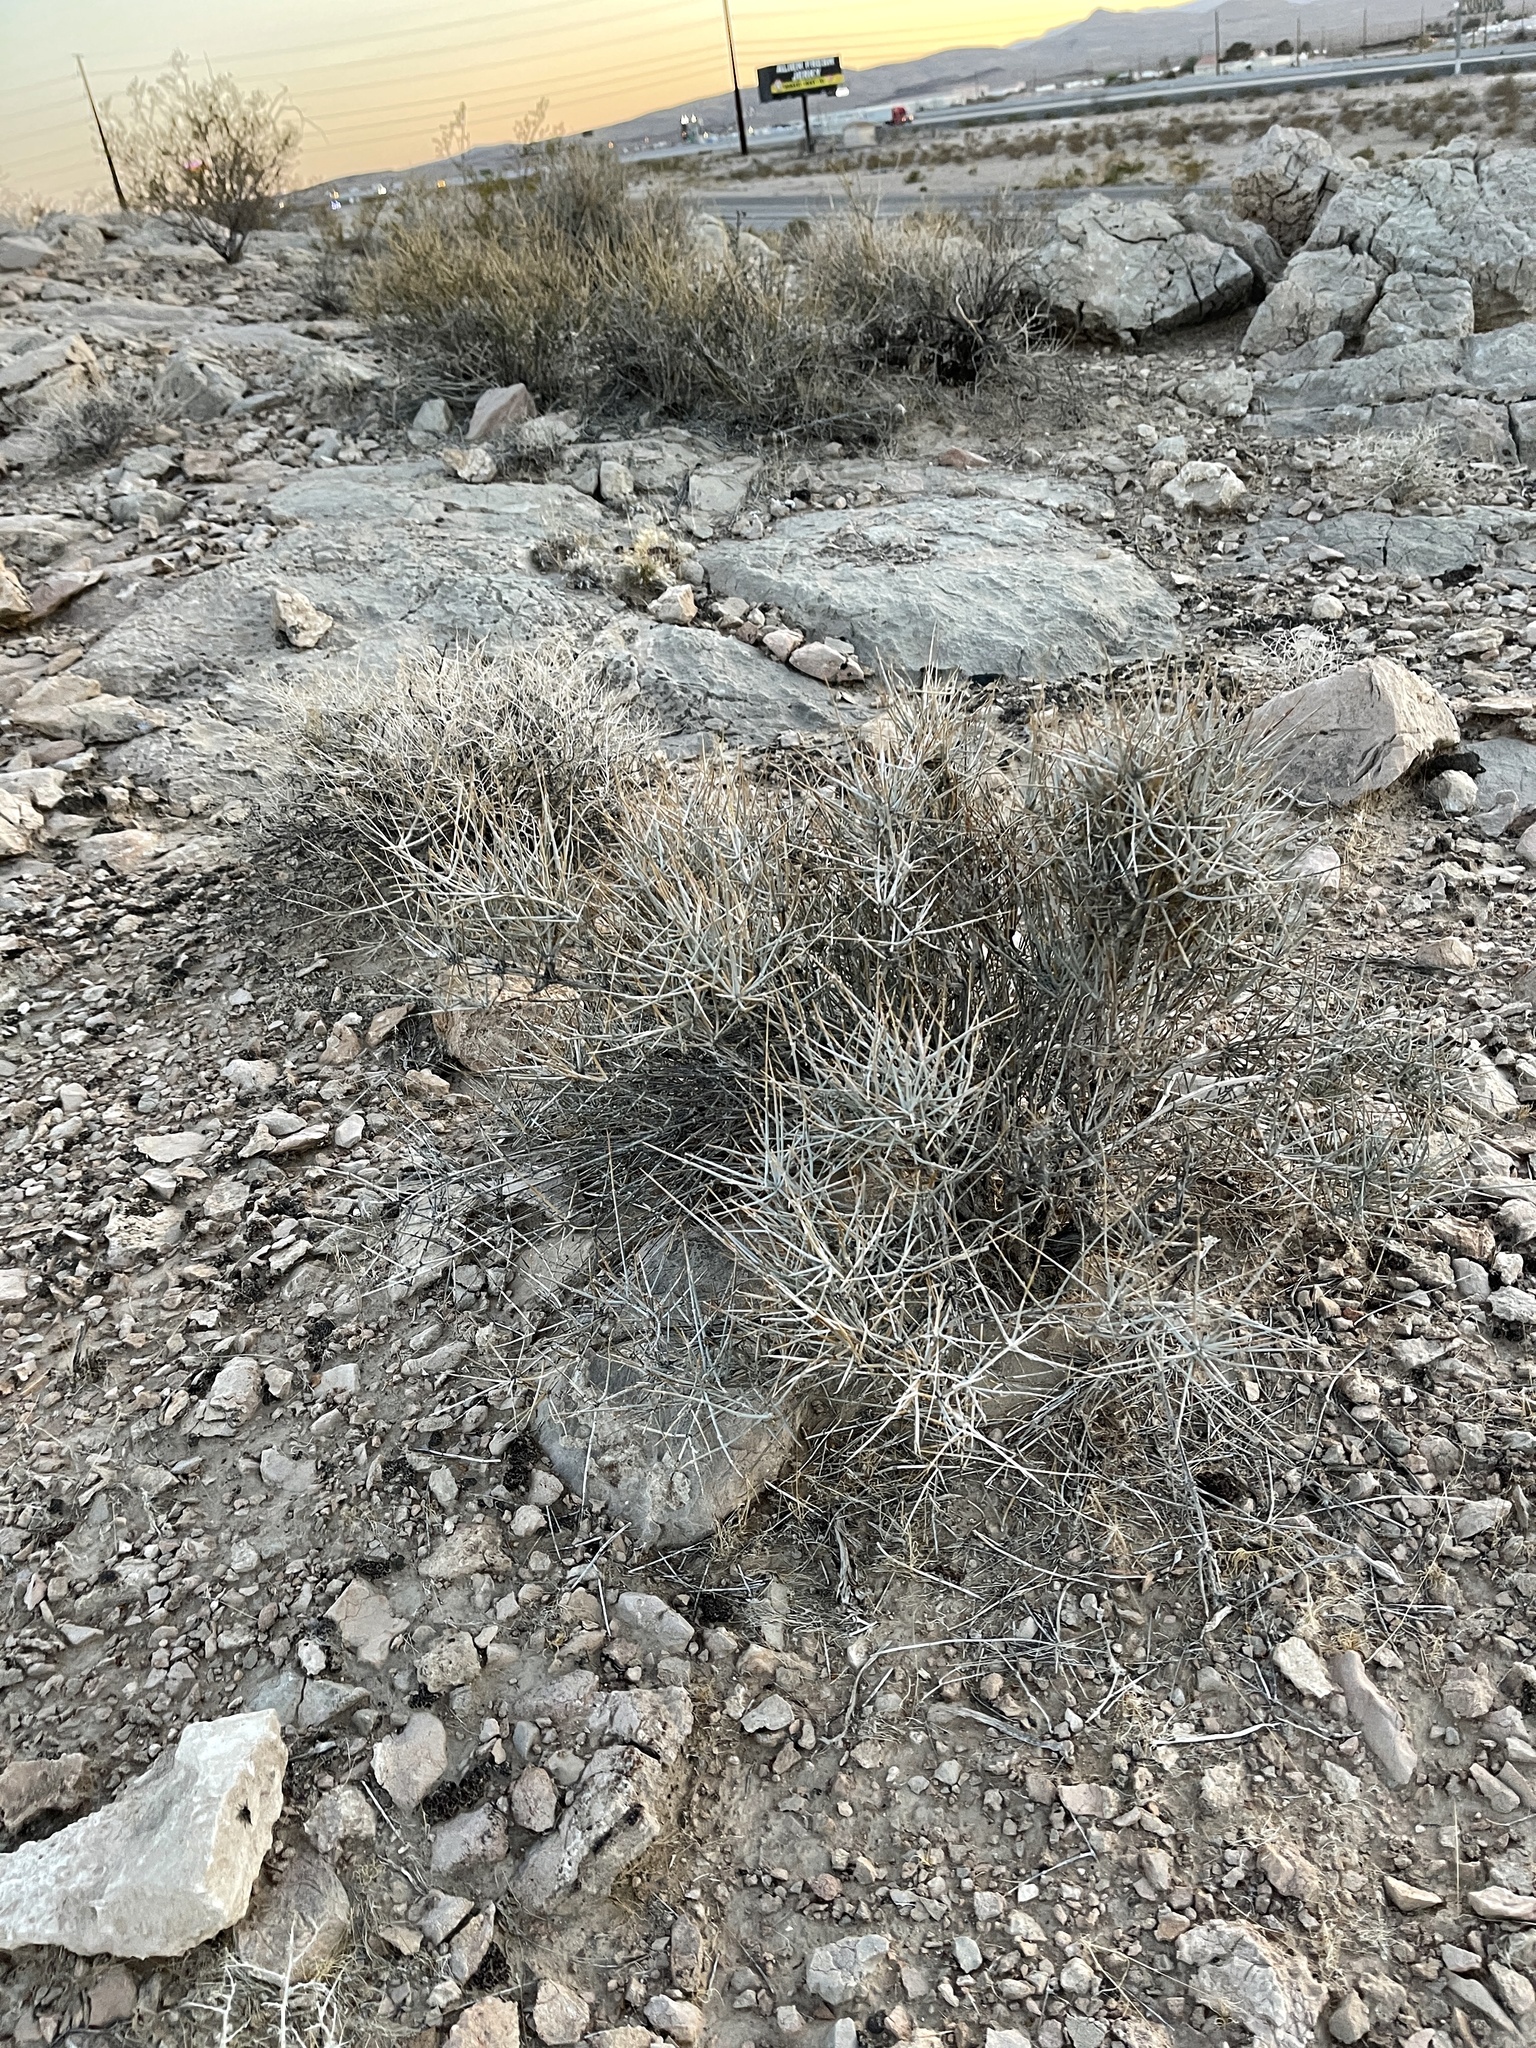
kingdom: Plantae
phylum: Tracheophyta
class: Gnetopsida
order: Ephedrales
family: Ephedraceae
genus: Ephedra
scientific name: Ephedra nevadensis
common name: Gray ephedra
